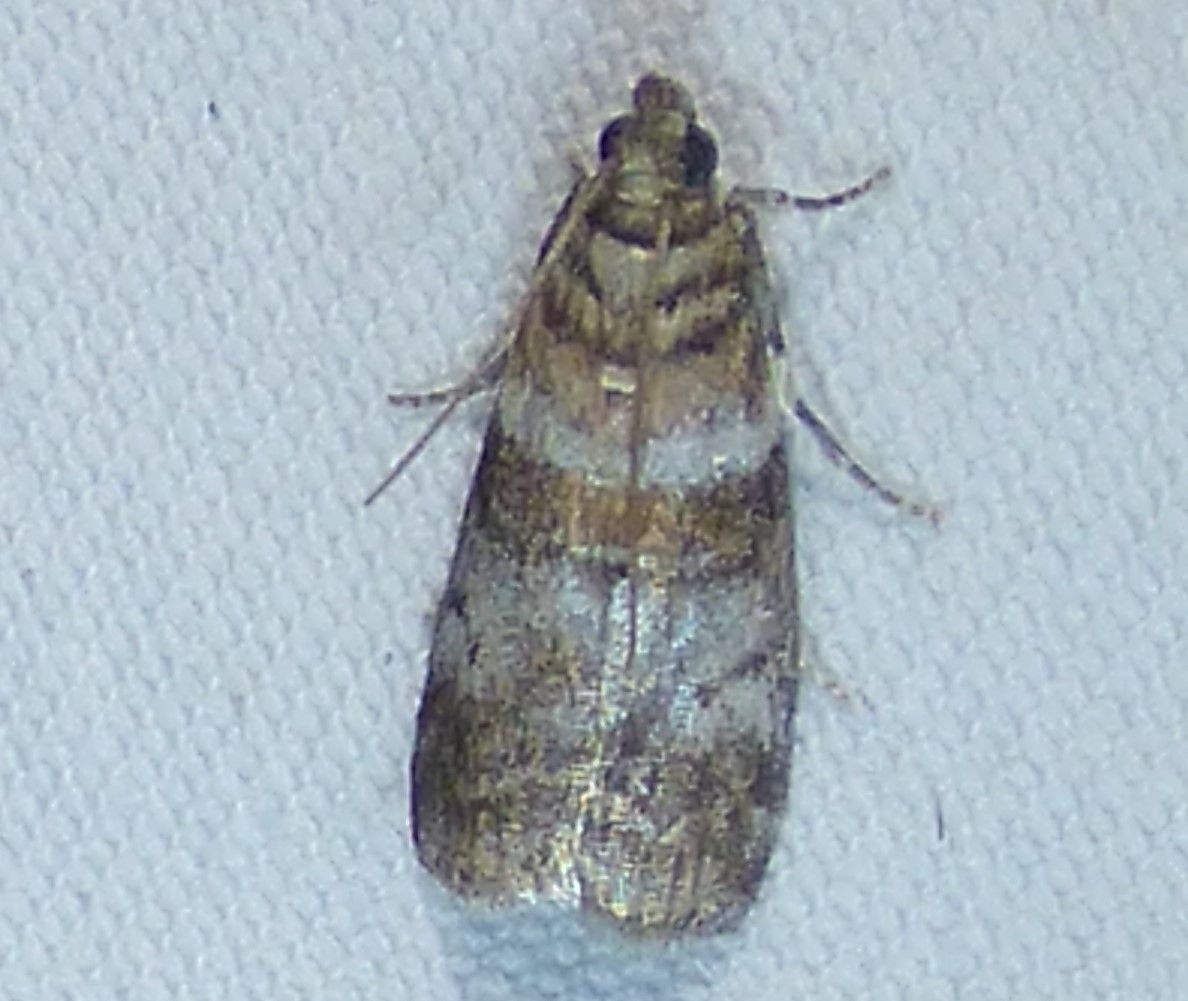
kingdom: Animalia
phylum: Arthropoda
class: Insecta
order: Lepidoptera
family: Pyralidae
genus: Sciota
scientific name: Sciota uvinella
